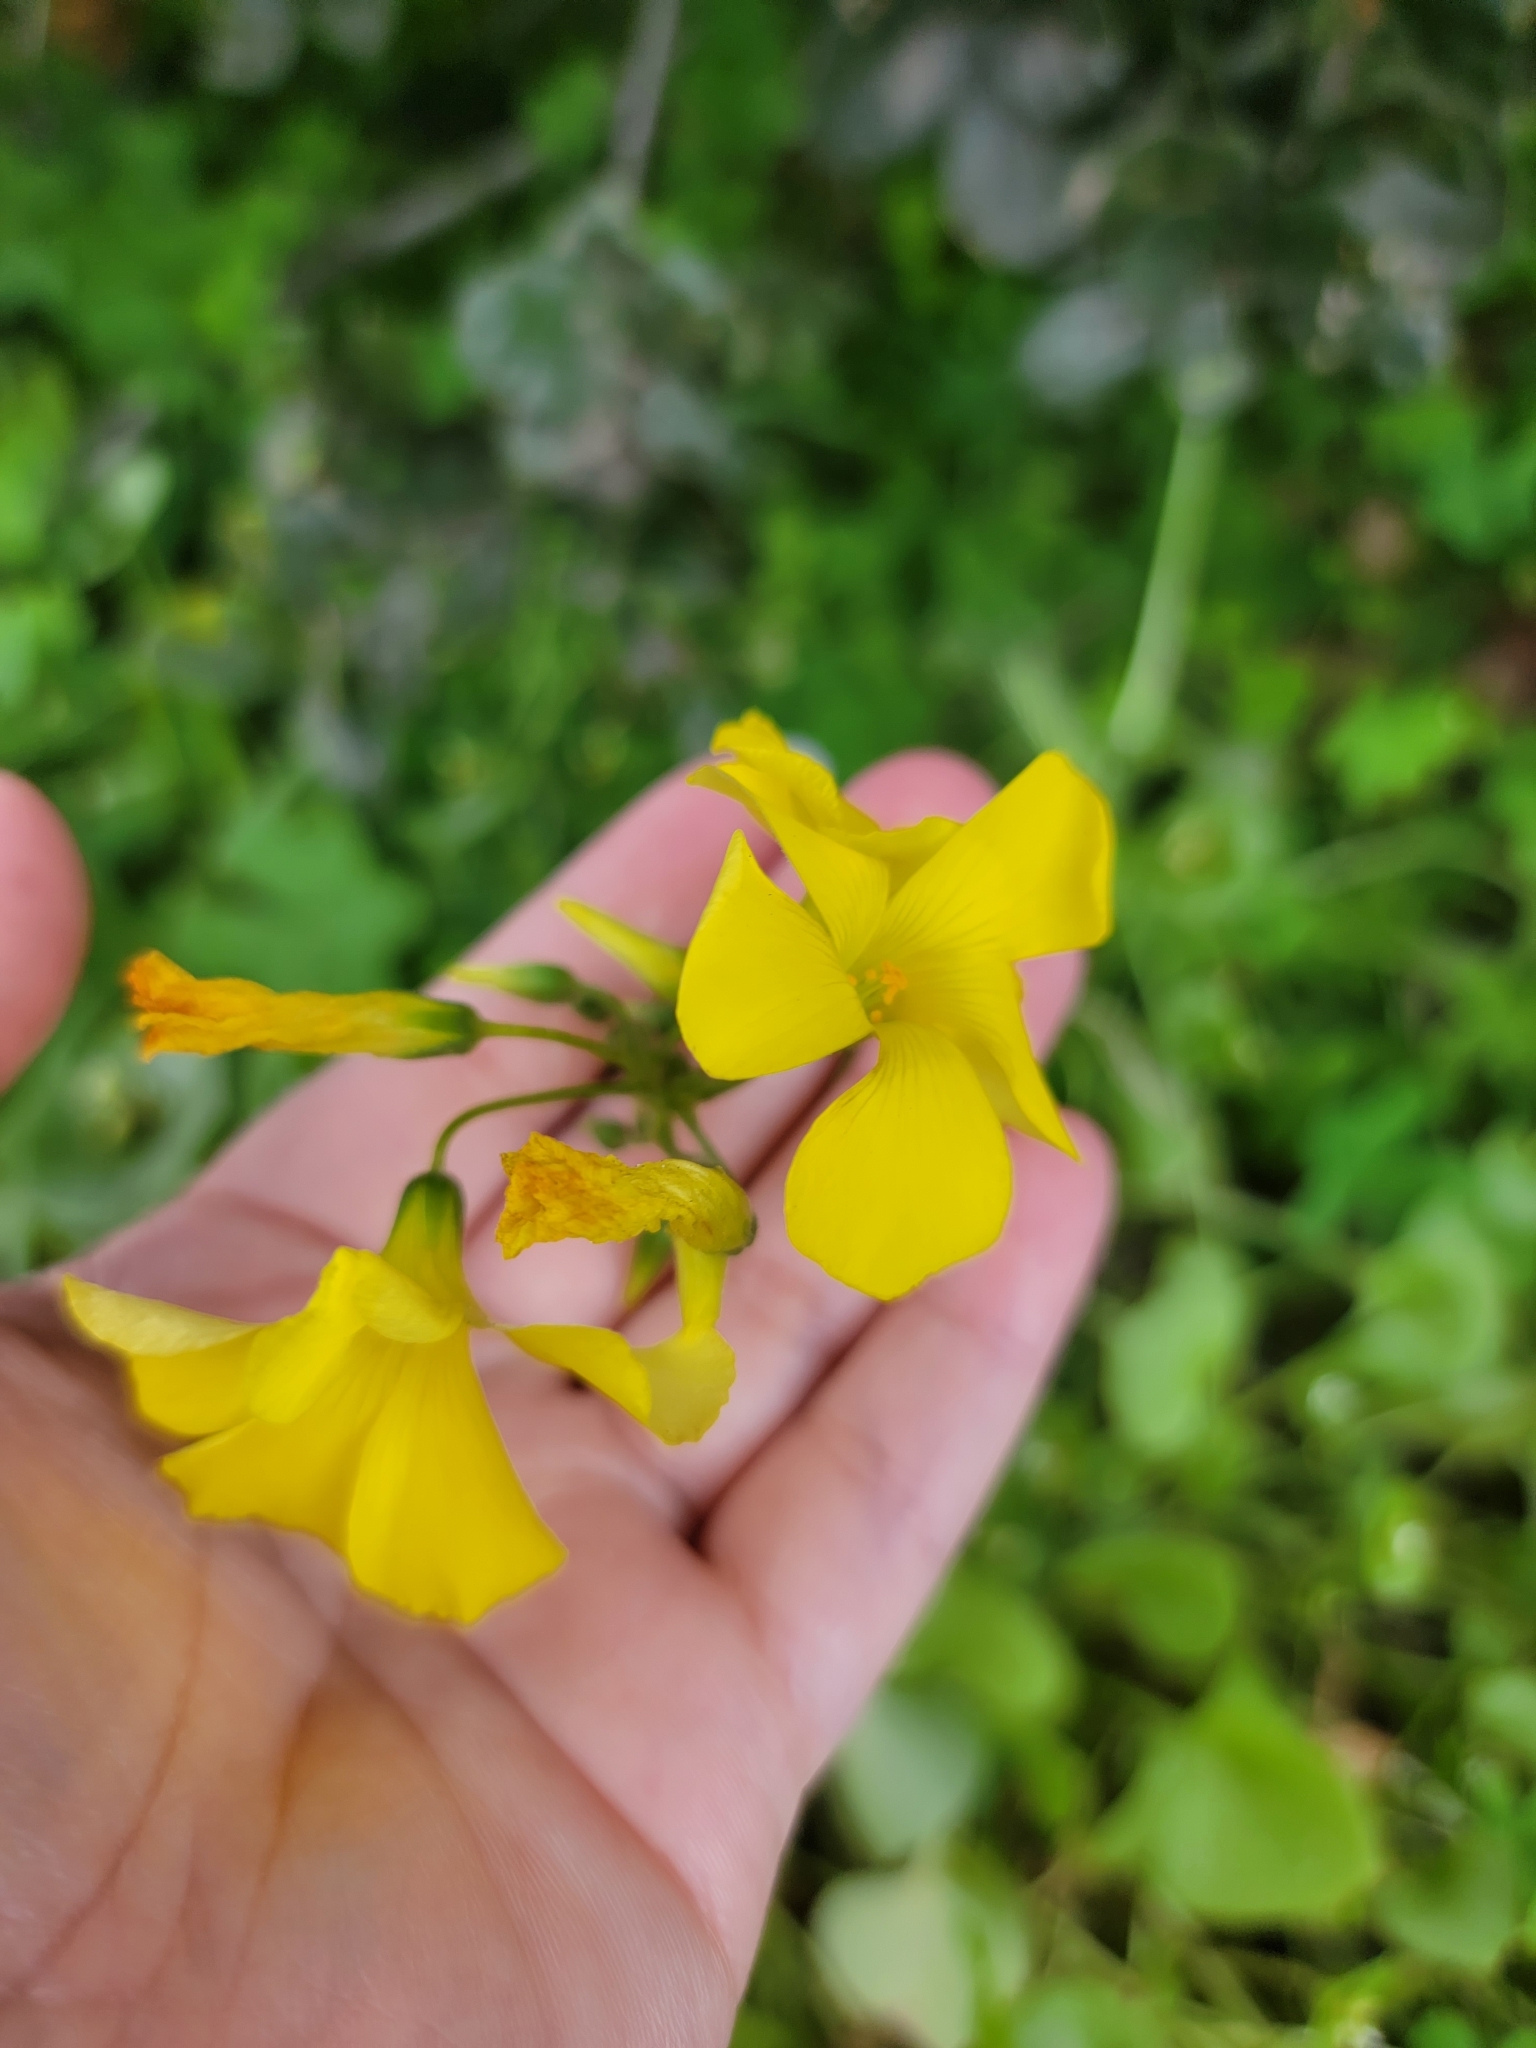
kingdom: Plantae
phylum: Tracheophyta
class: Magnoliopsida
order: Oxalidales
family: Oxalidaceae
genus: Oxalis
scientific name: Oxalis pes-caprae
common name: Bermuda-buttercup
